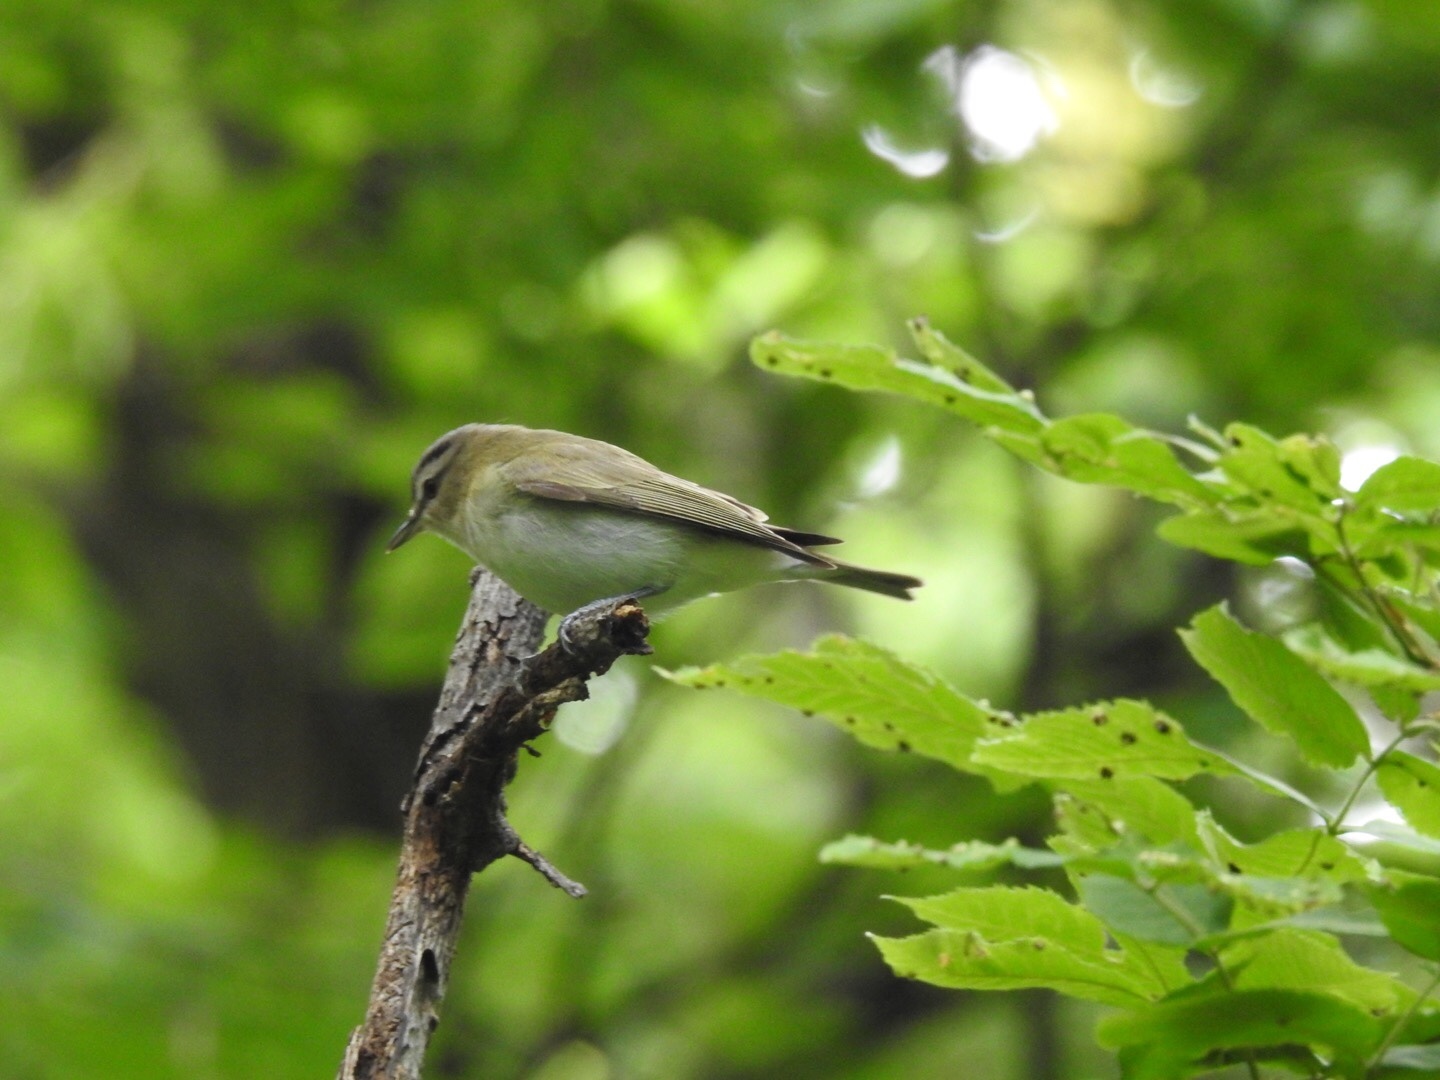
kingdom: Animalia
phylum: Chordata
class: Aves
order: Passeriformes
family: Vireonidae
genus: Vireo
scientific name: Vireo olivaceus
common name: Red-eyed vireo
